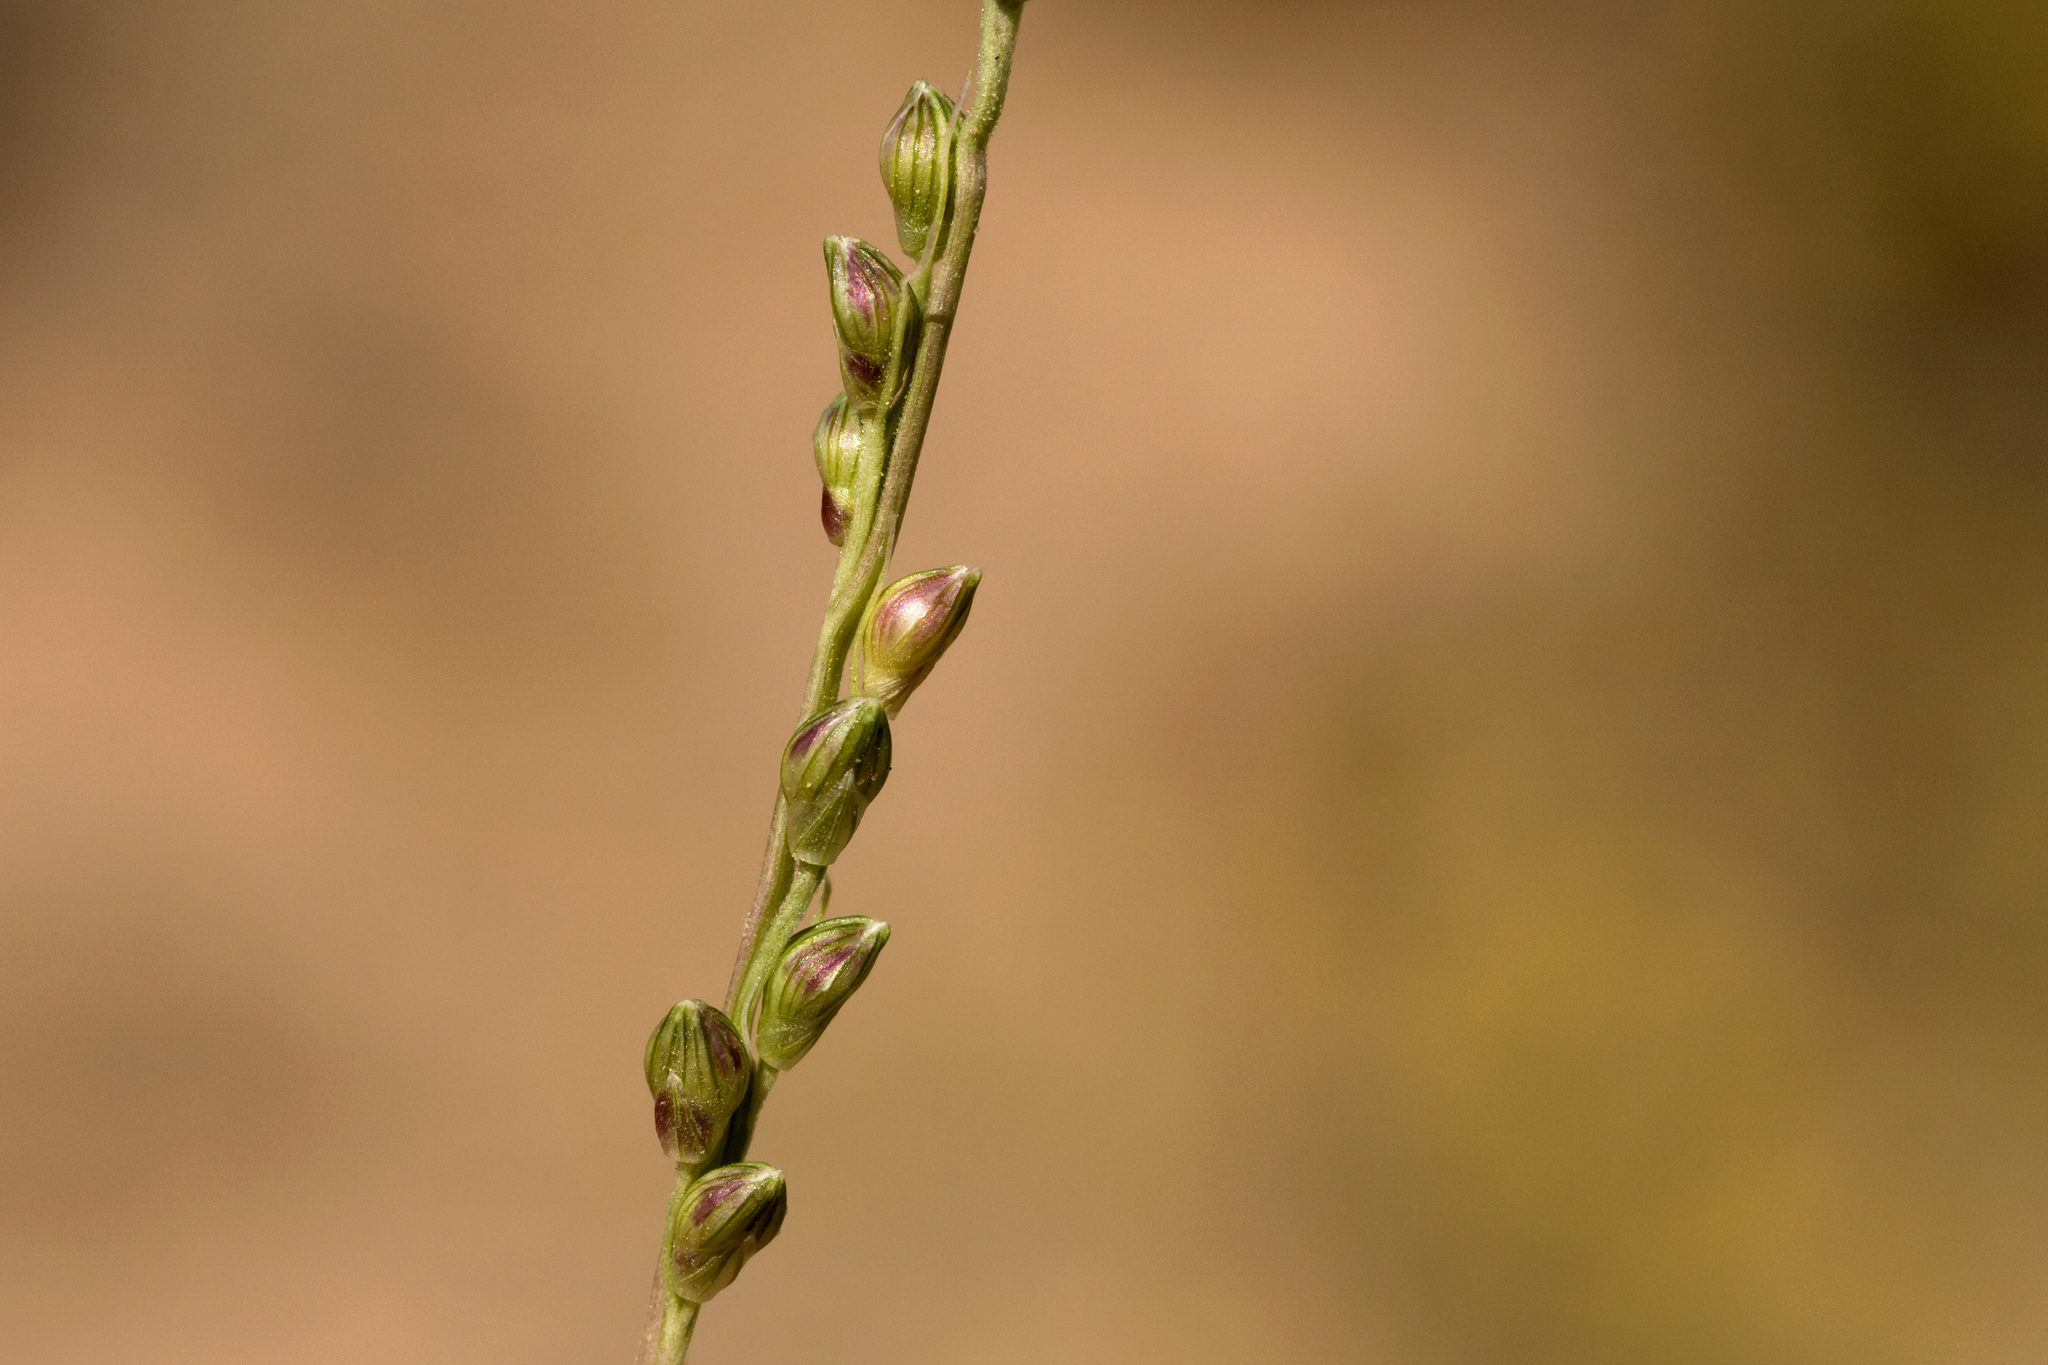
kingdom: Plantae
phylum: Tracheophyta
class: Liliopsida
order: Poales
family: Poaceae
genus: Setaria
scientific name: Setaria reverchonii
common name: Reverchon's bristle grass
